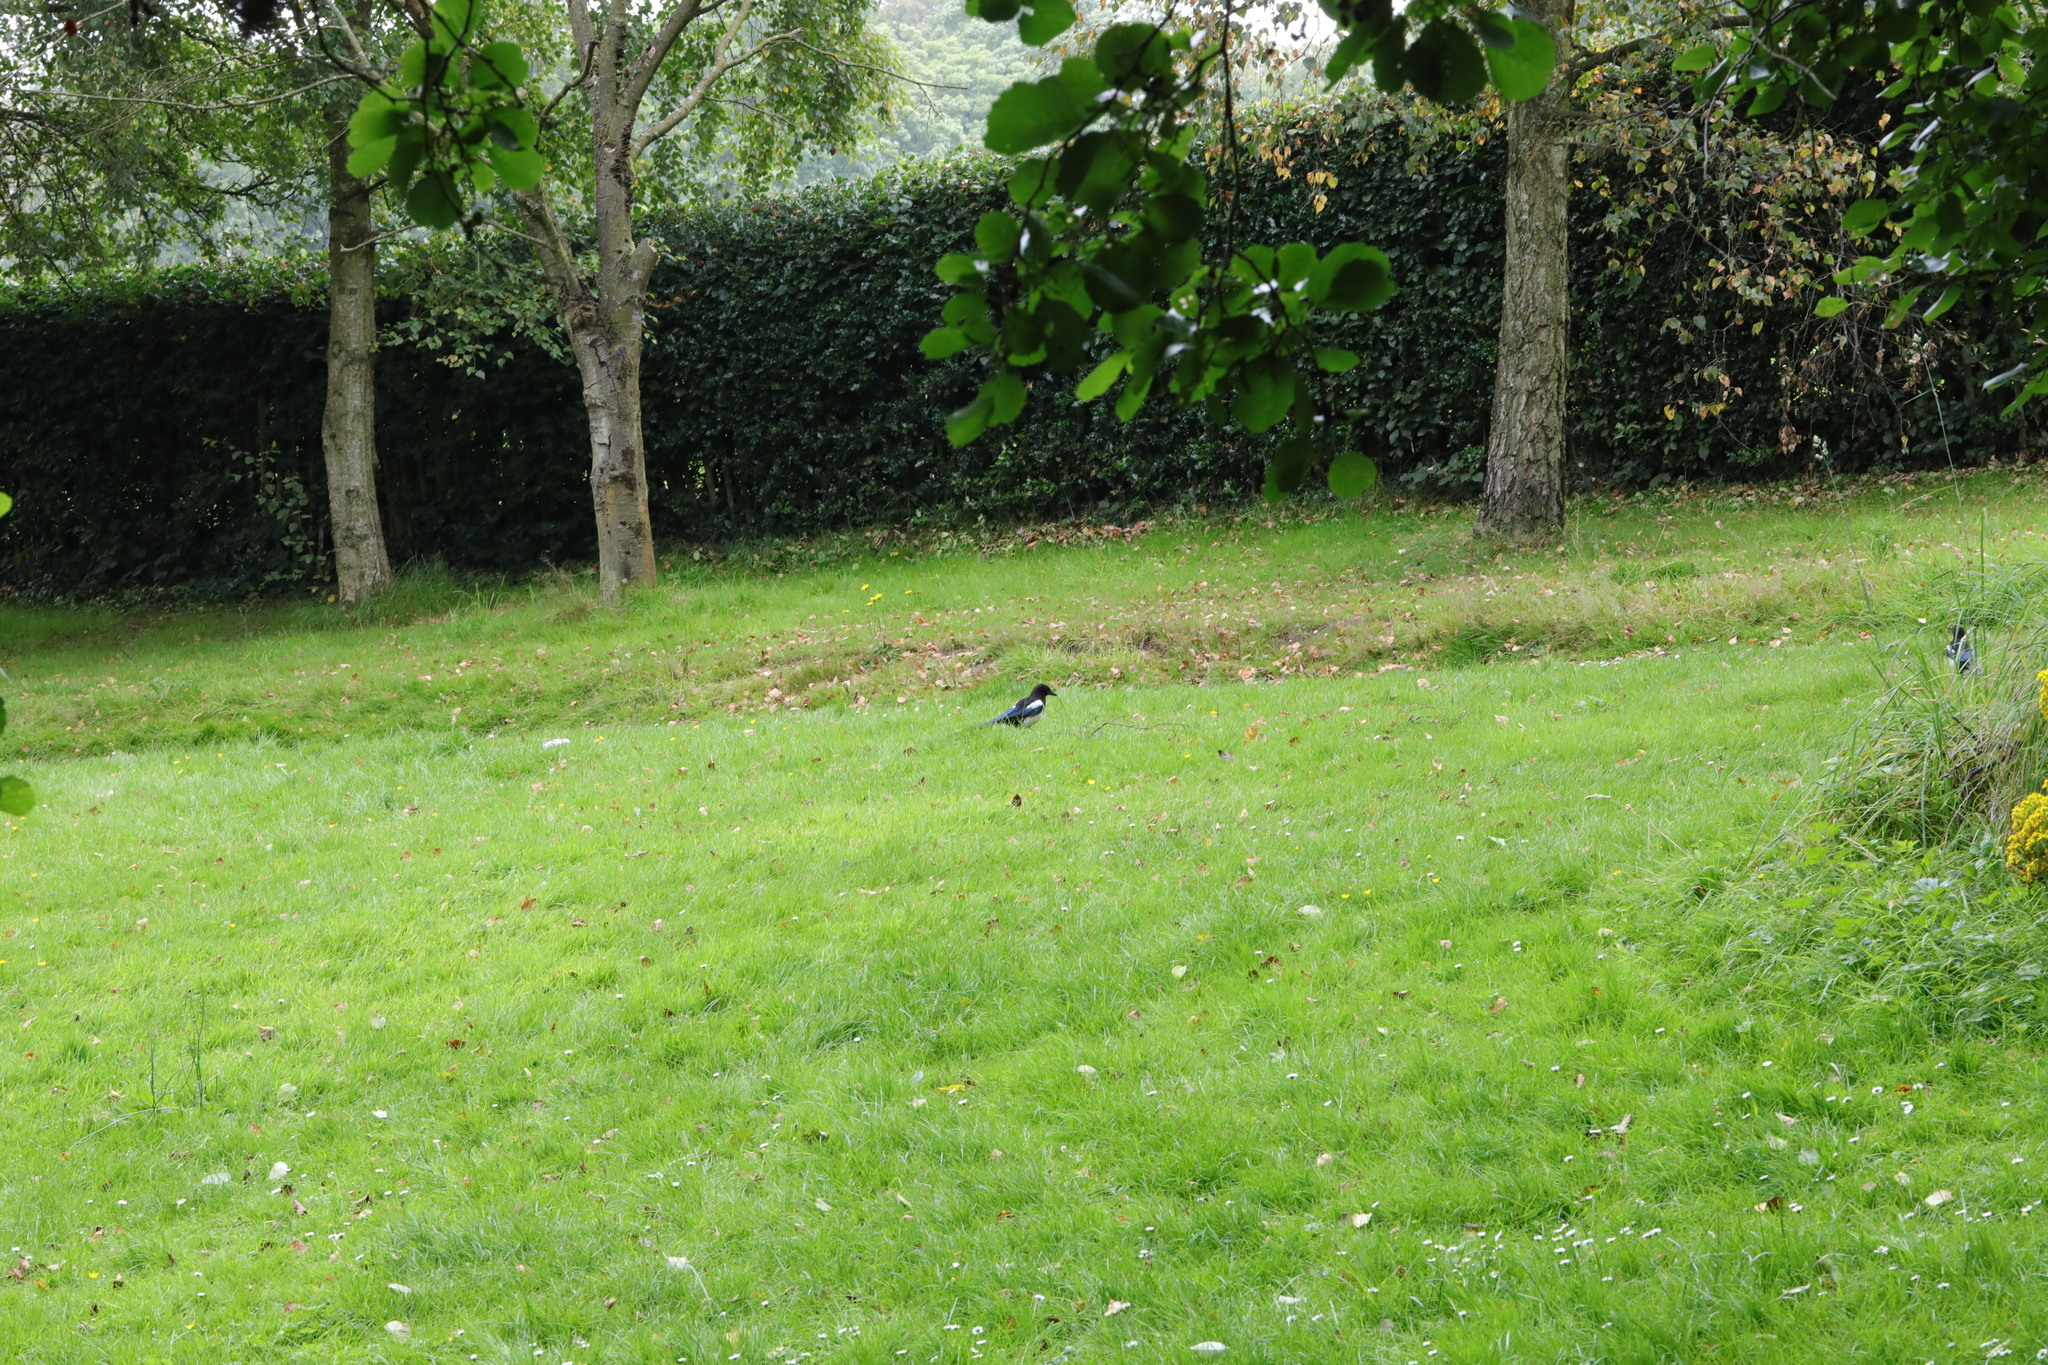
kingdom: Animalia
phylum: Chordata
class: Aves
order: Passeriformes
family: Corvidae
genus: Pica
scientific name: Pica pica
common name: Eurasian magpie
